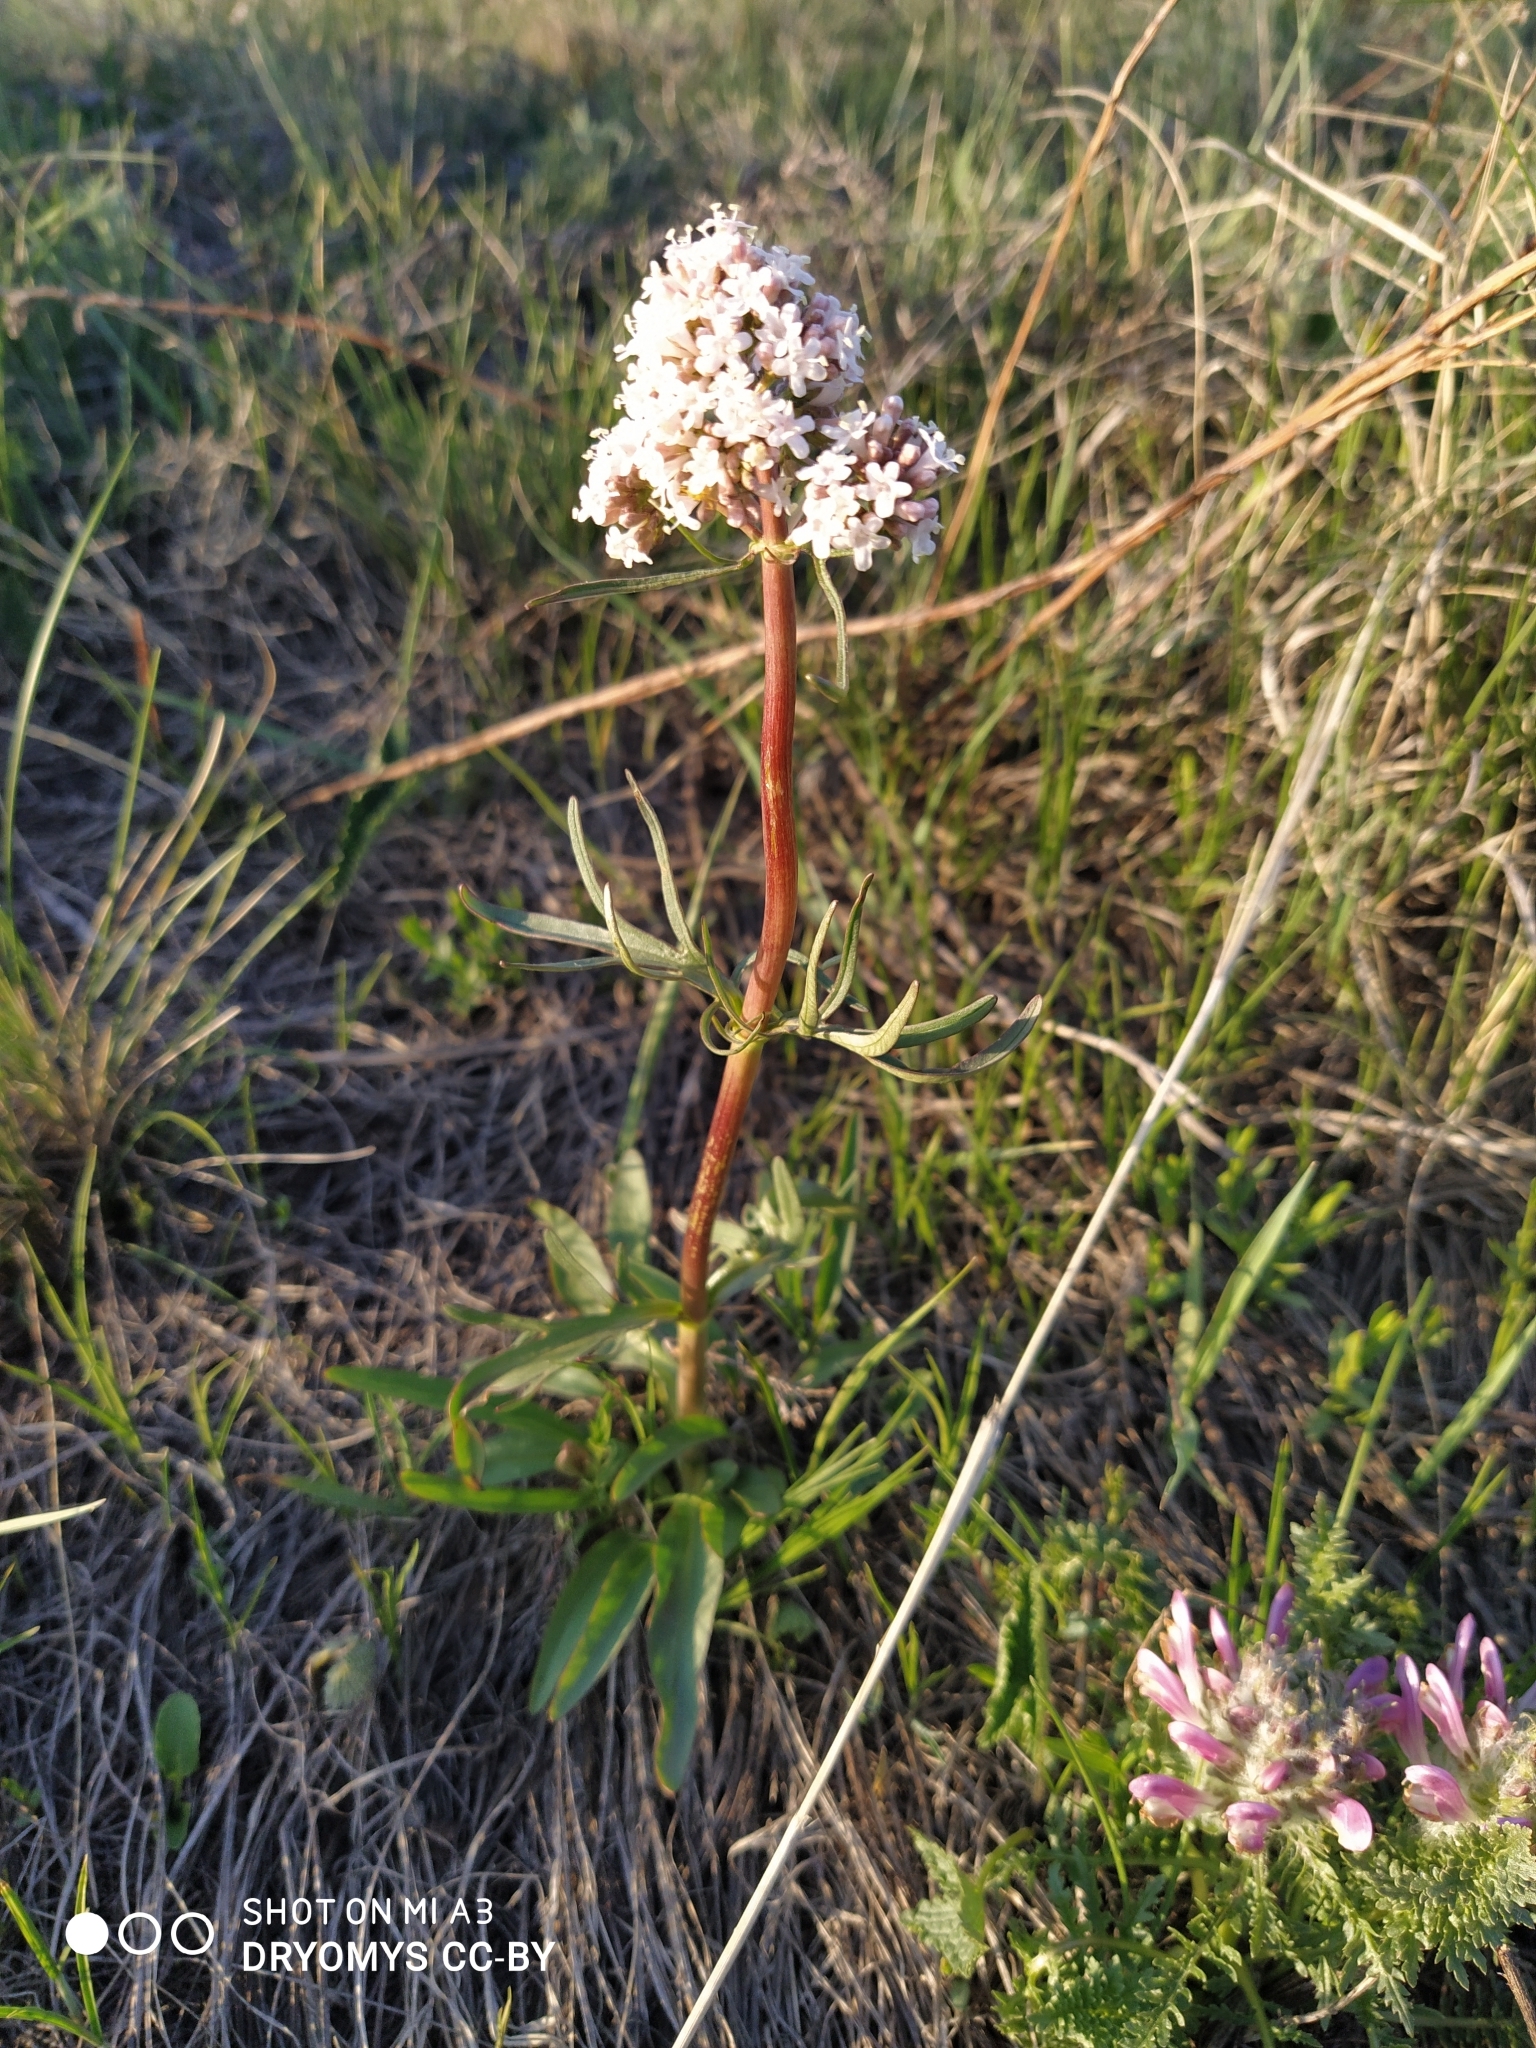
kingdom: Plantae
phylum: Tracheophyta
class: Magnoliopsida
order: Dipsacales
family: Caprifoliaceae
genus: Valeriana
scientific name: Valeriana tuberosa
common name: Tuberous valerian
